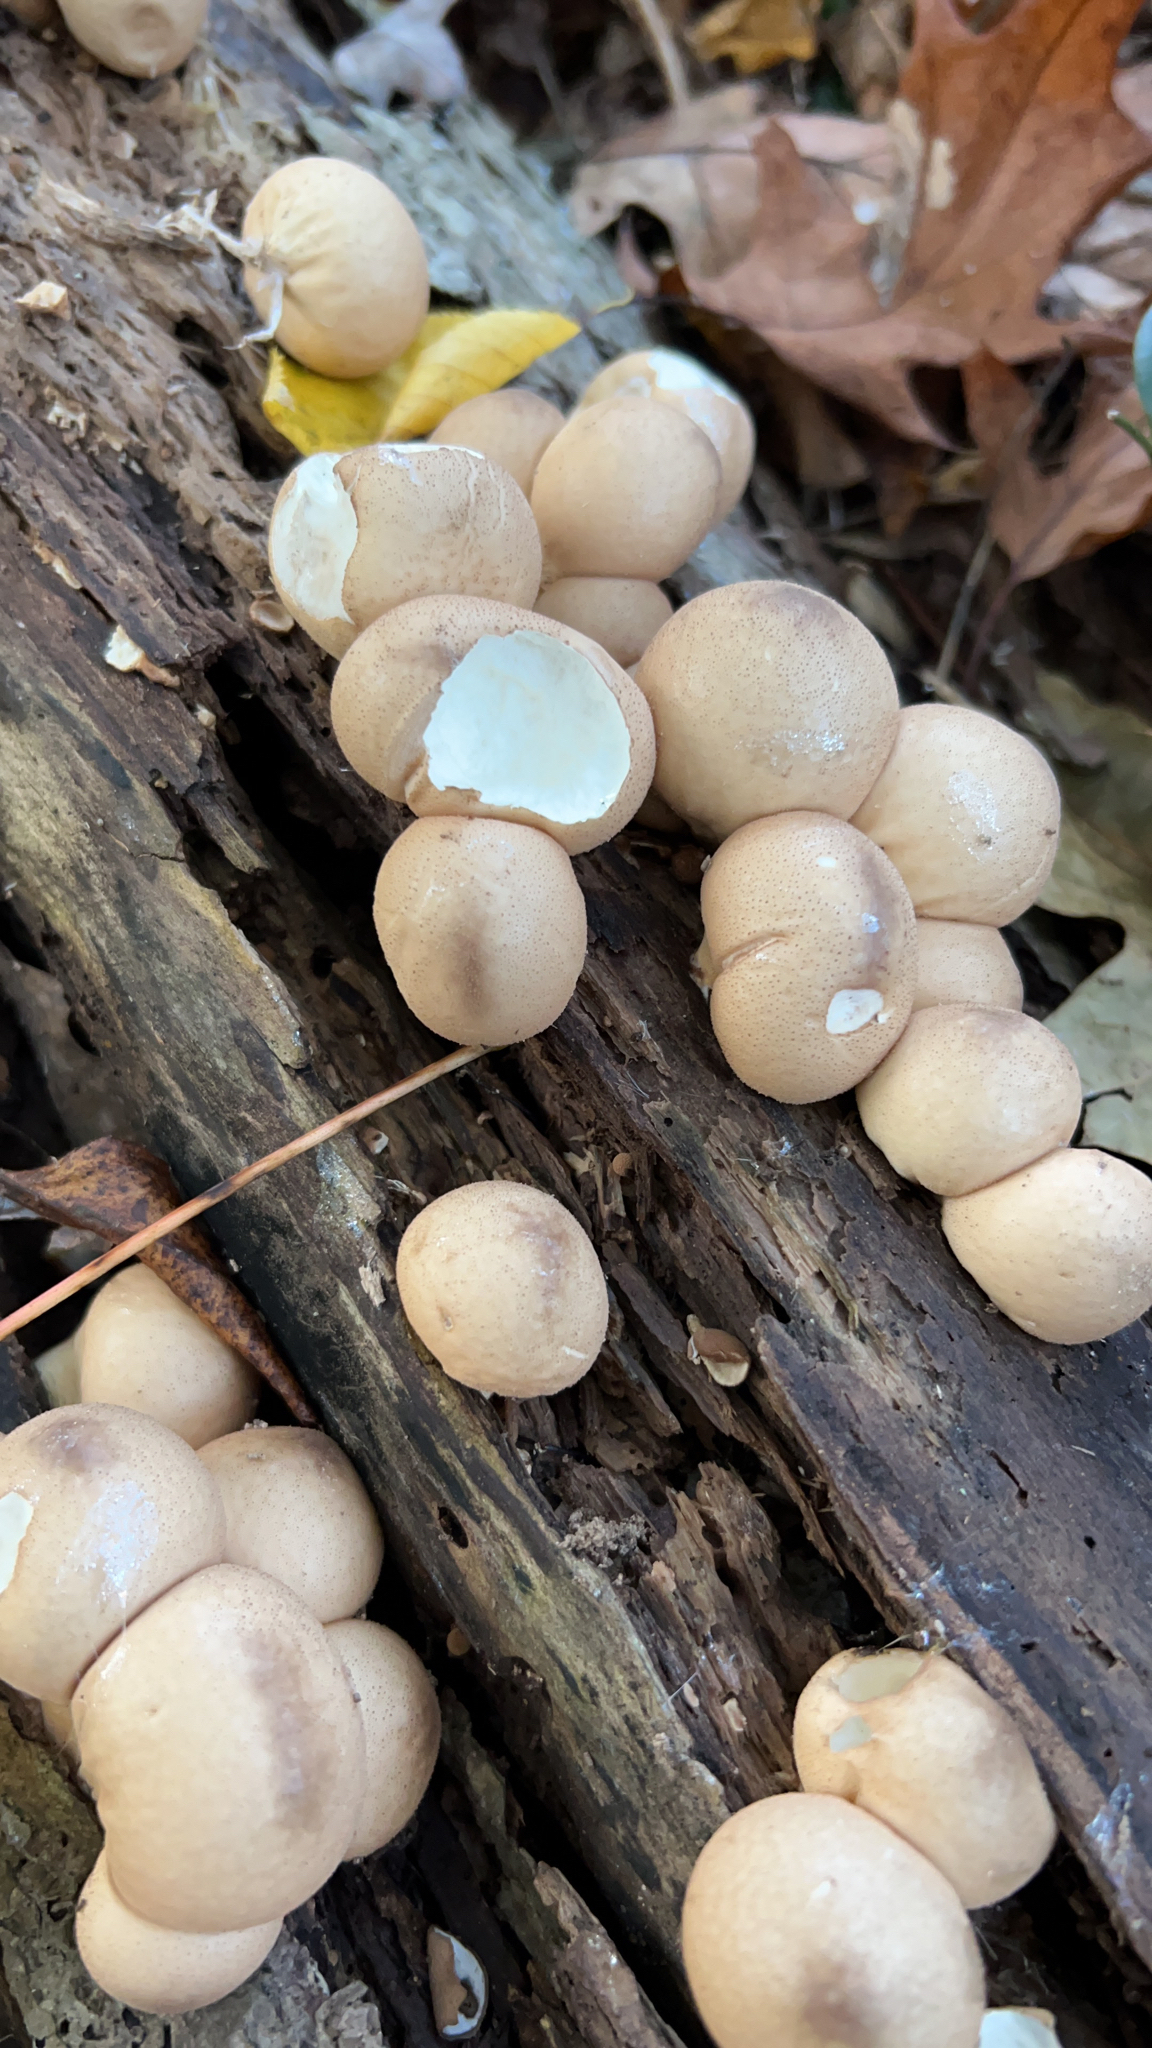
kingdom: Fungi
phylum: Basidiomycota
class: Agaricomycetes
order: Agaricales
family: Lycoperdaceae
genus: Apioperdon
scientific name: Apioperdon pyriforme
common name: Pear-shaped puffball
